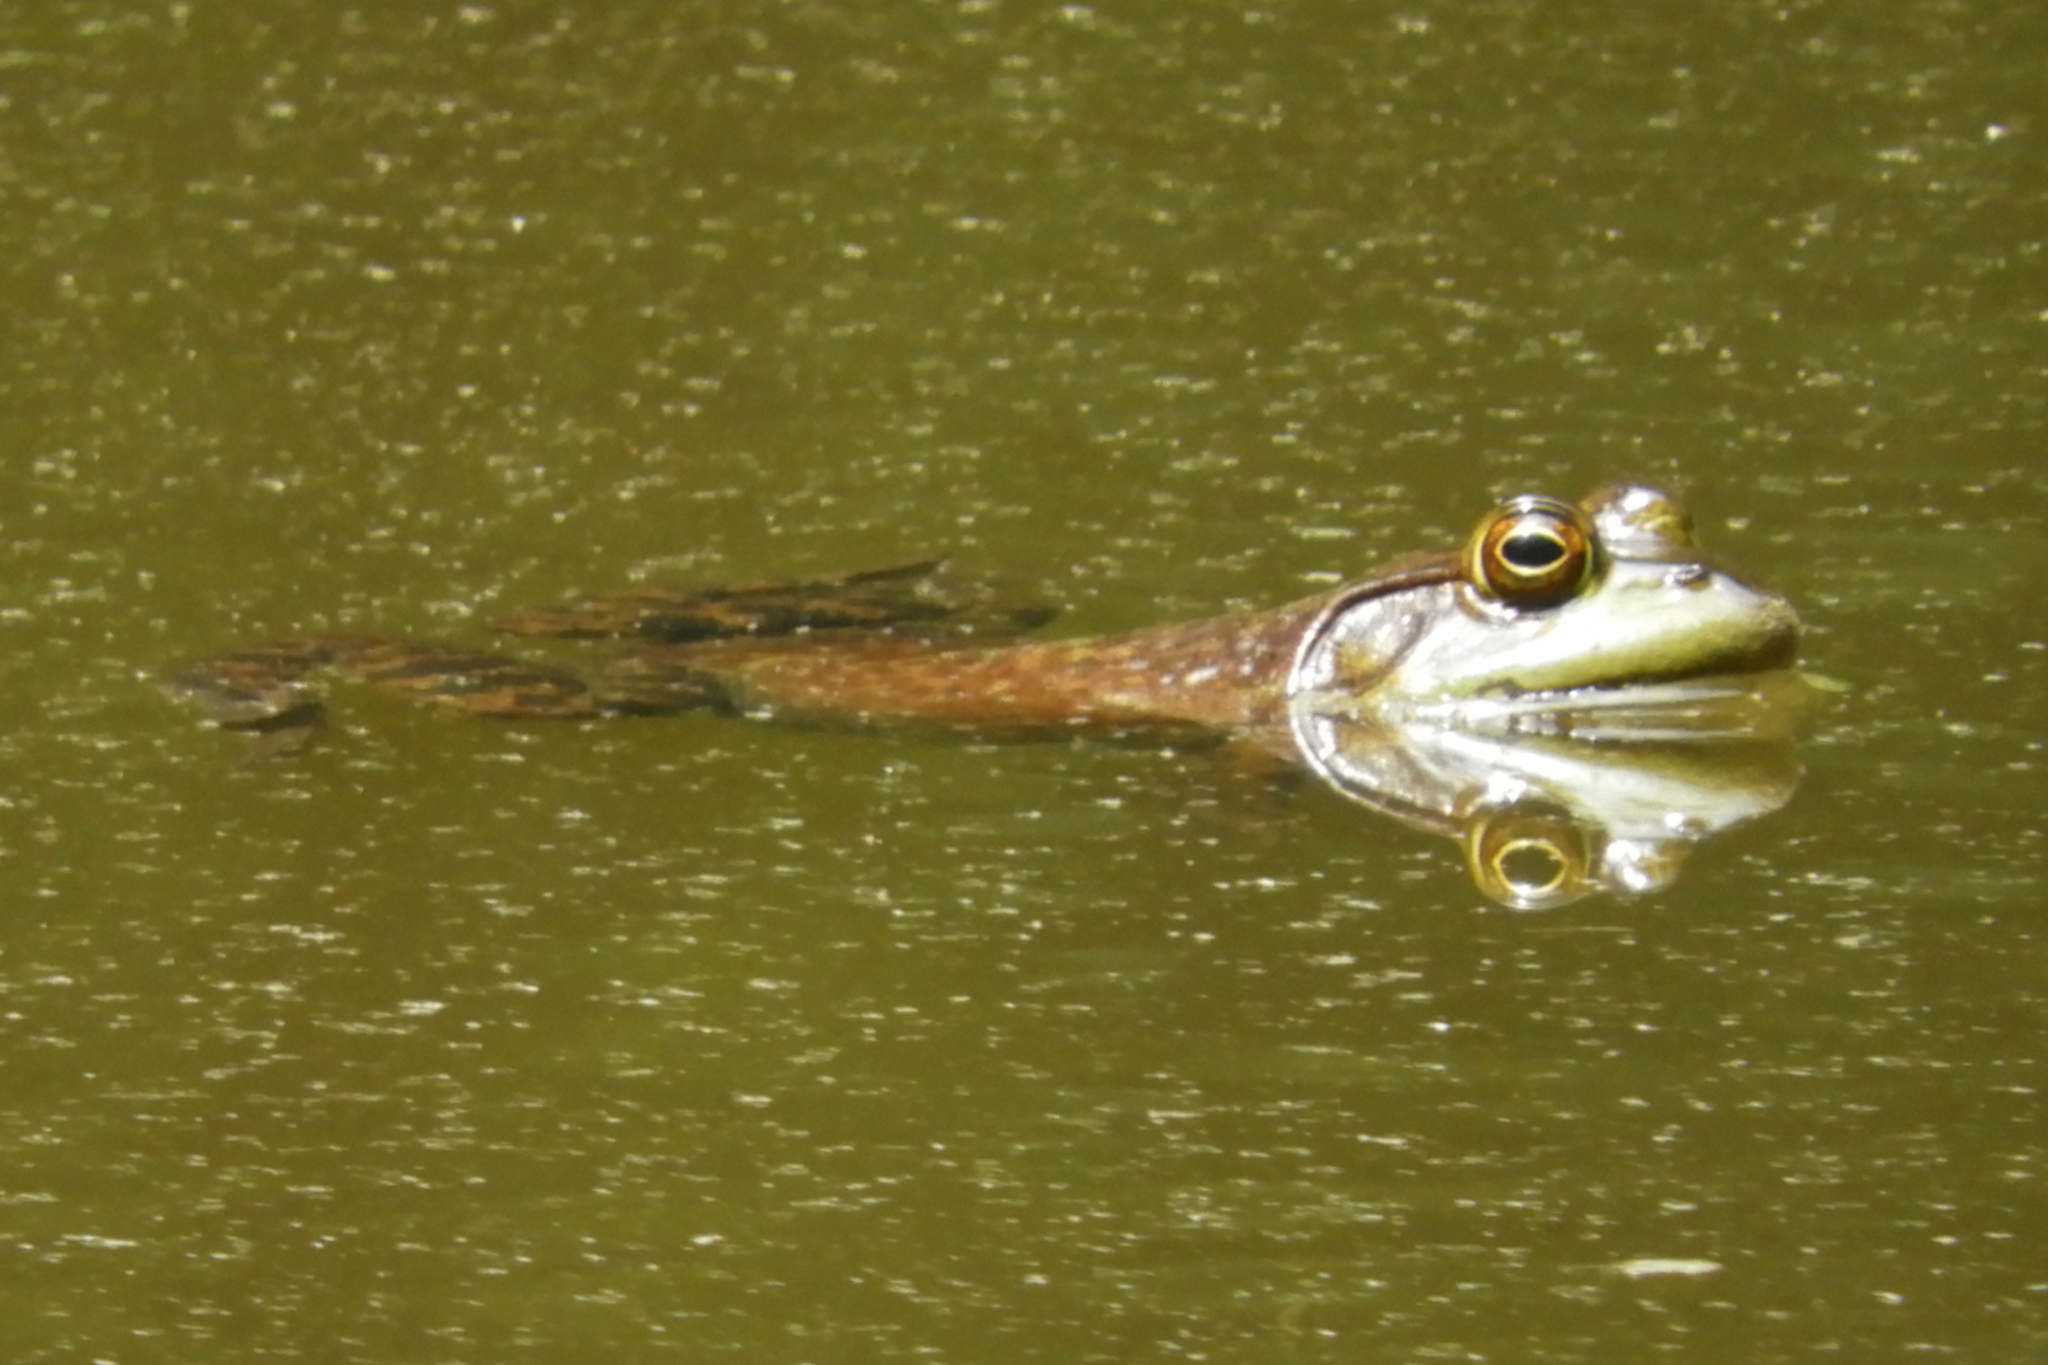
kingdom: Animalia
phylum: Chordata
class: Amphibia
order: Anura
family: Ranidae
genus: Lithobates
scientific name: Lithobates catesbeianus
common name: American bullfrog
